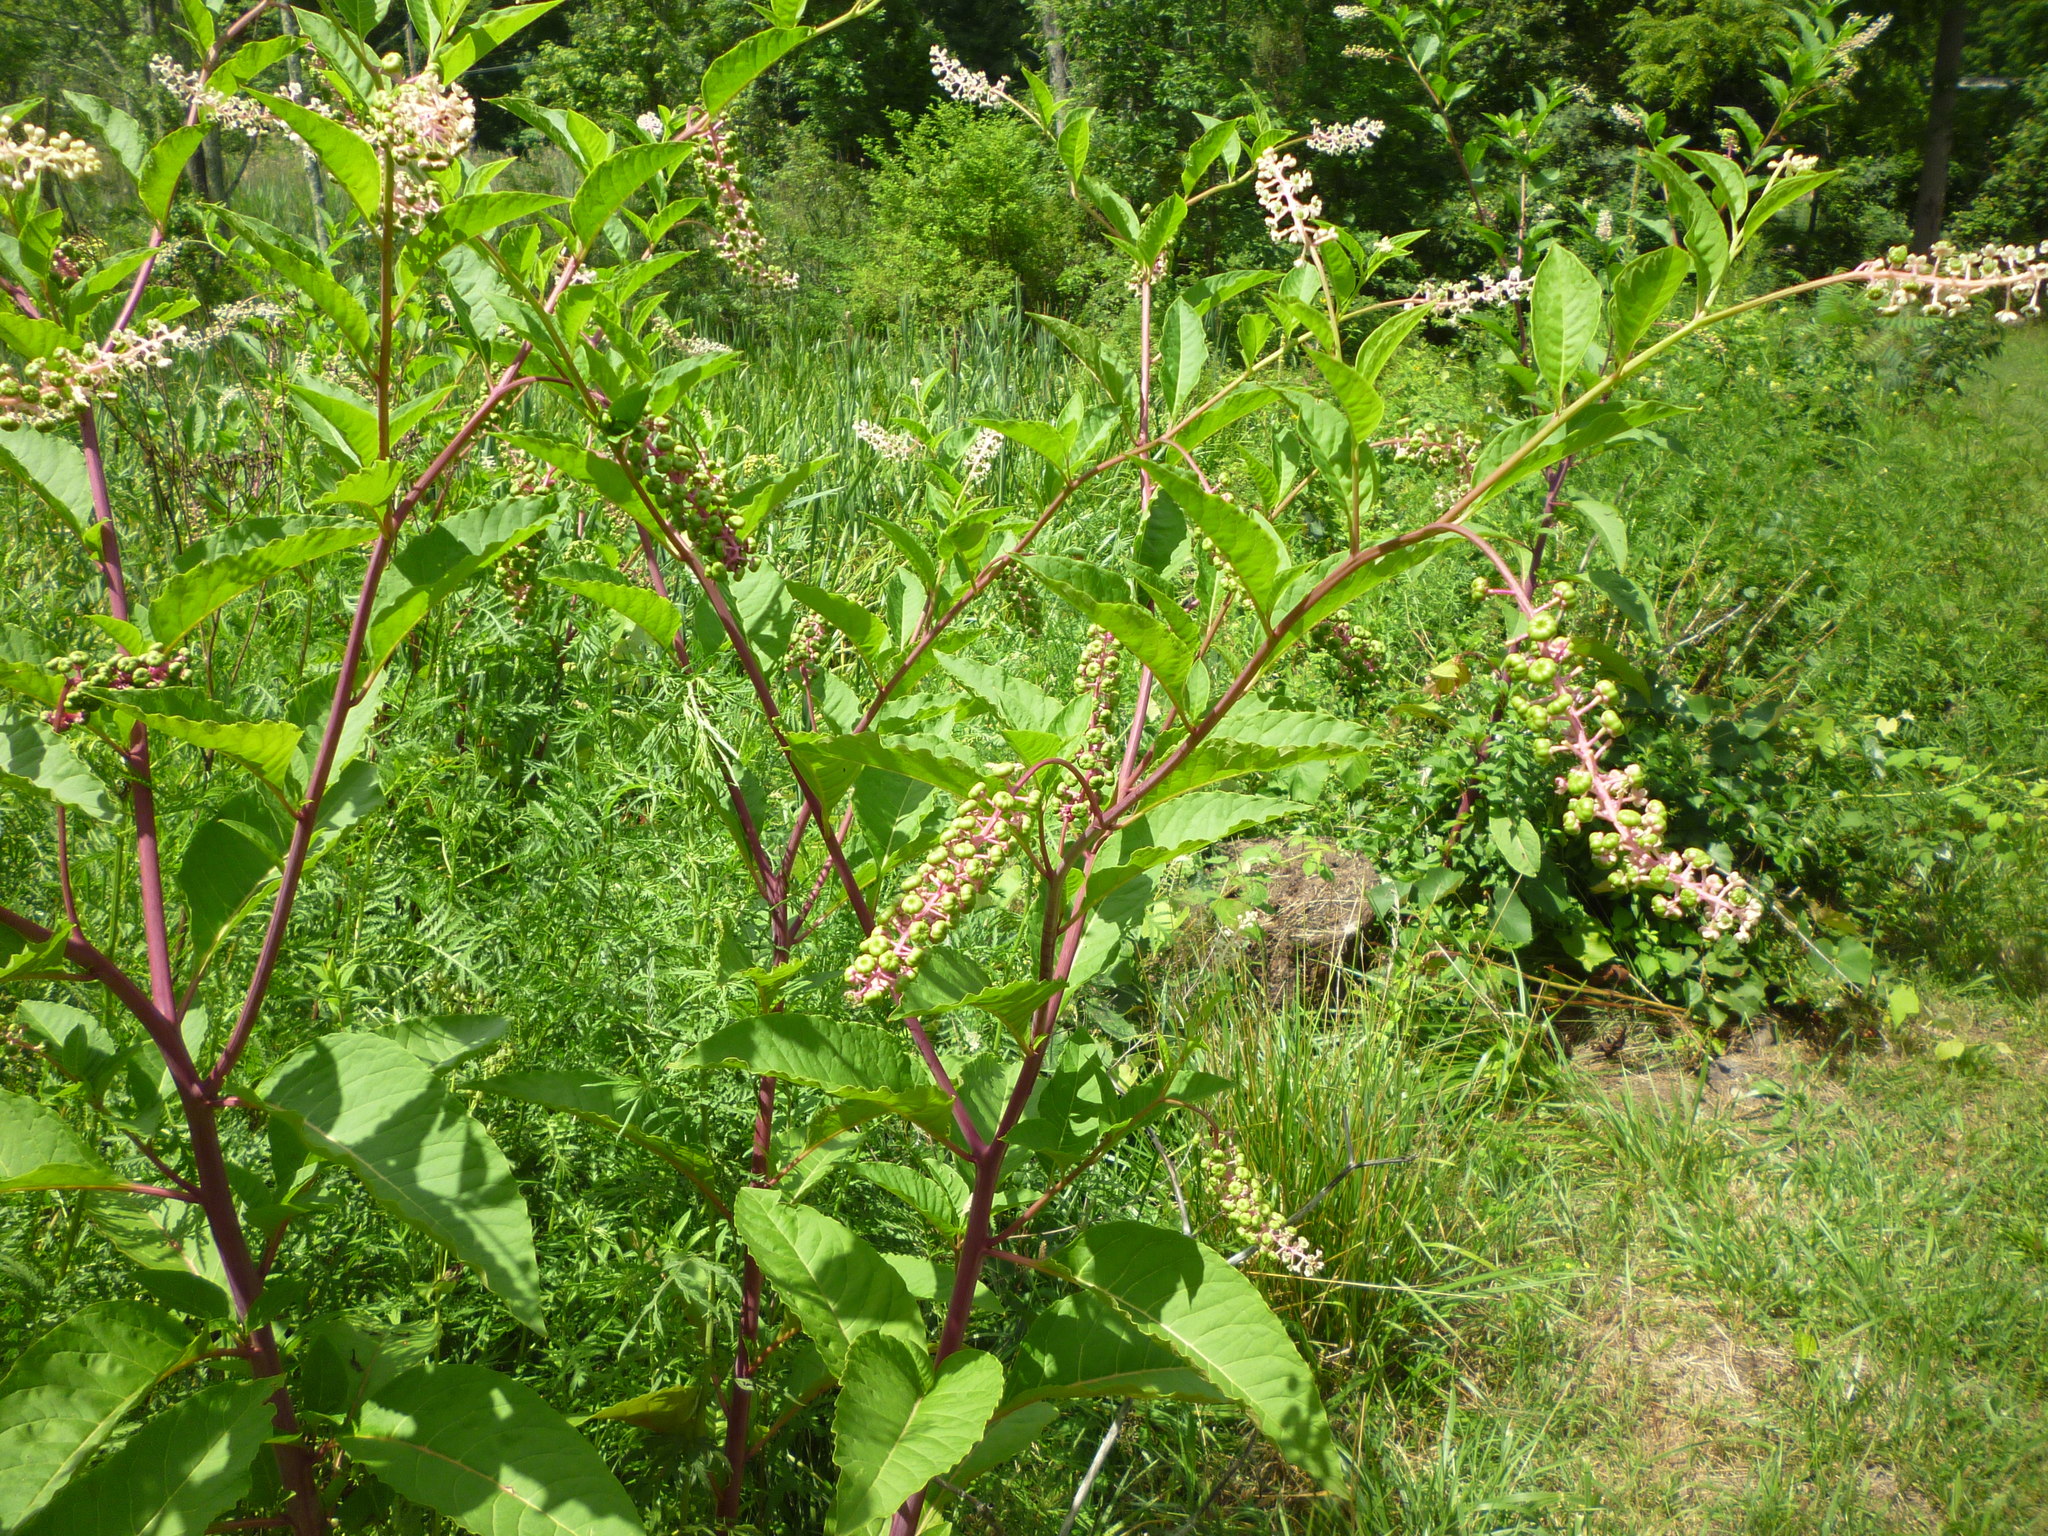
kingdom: Plantae
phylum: Tracheophyta
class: Magnoliopsida
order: Caryophyllales
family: Phytolaccaceae
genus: Phytolacca
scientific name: Phytolacca americana
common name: American pokeweed
